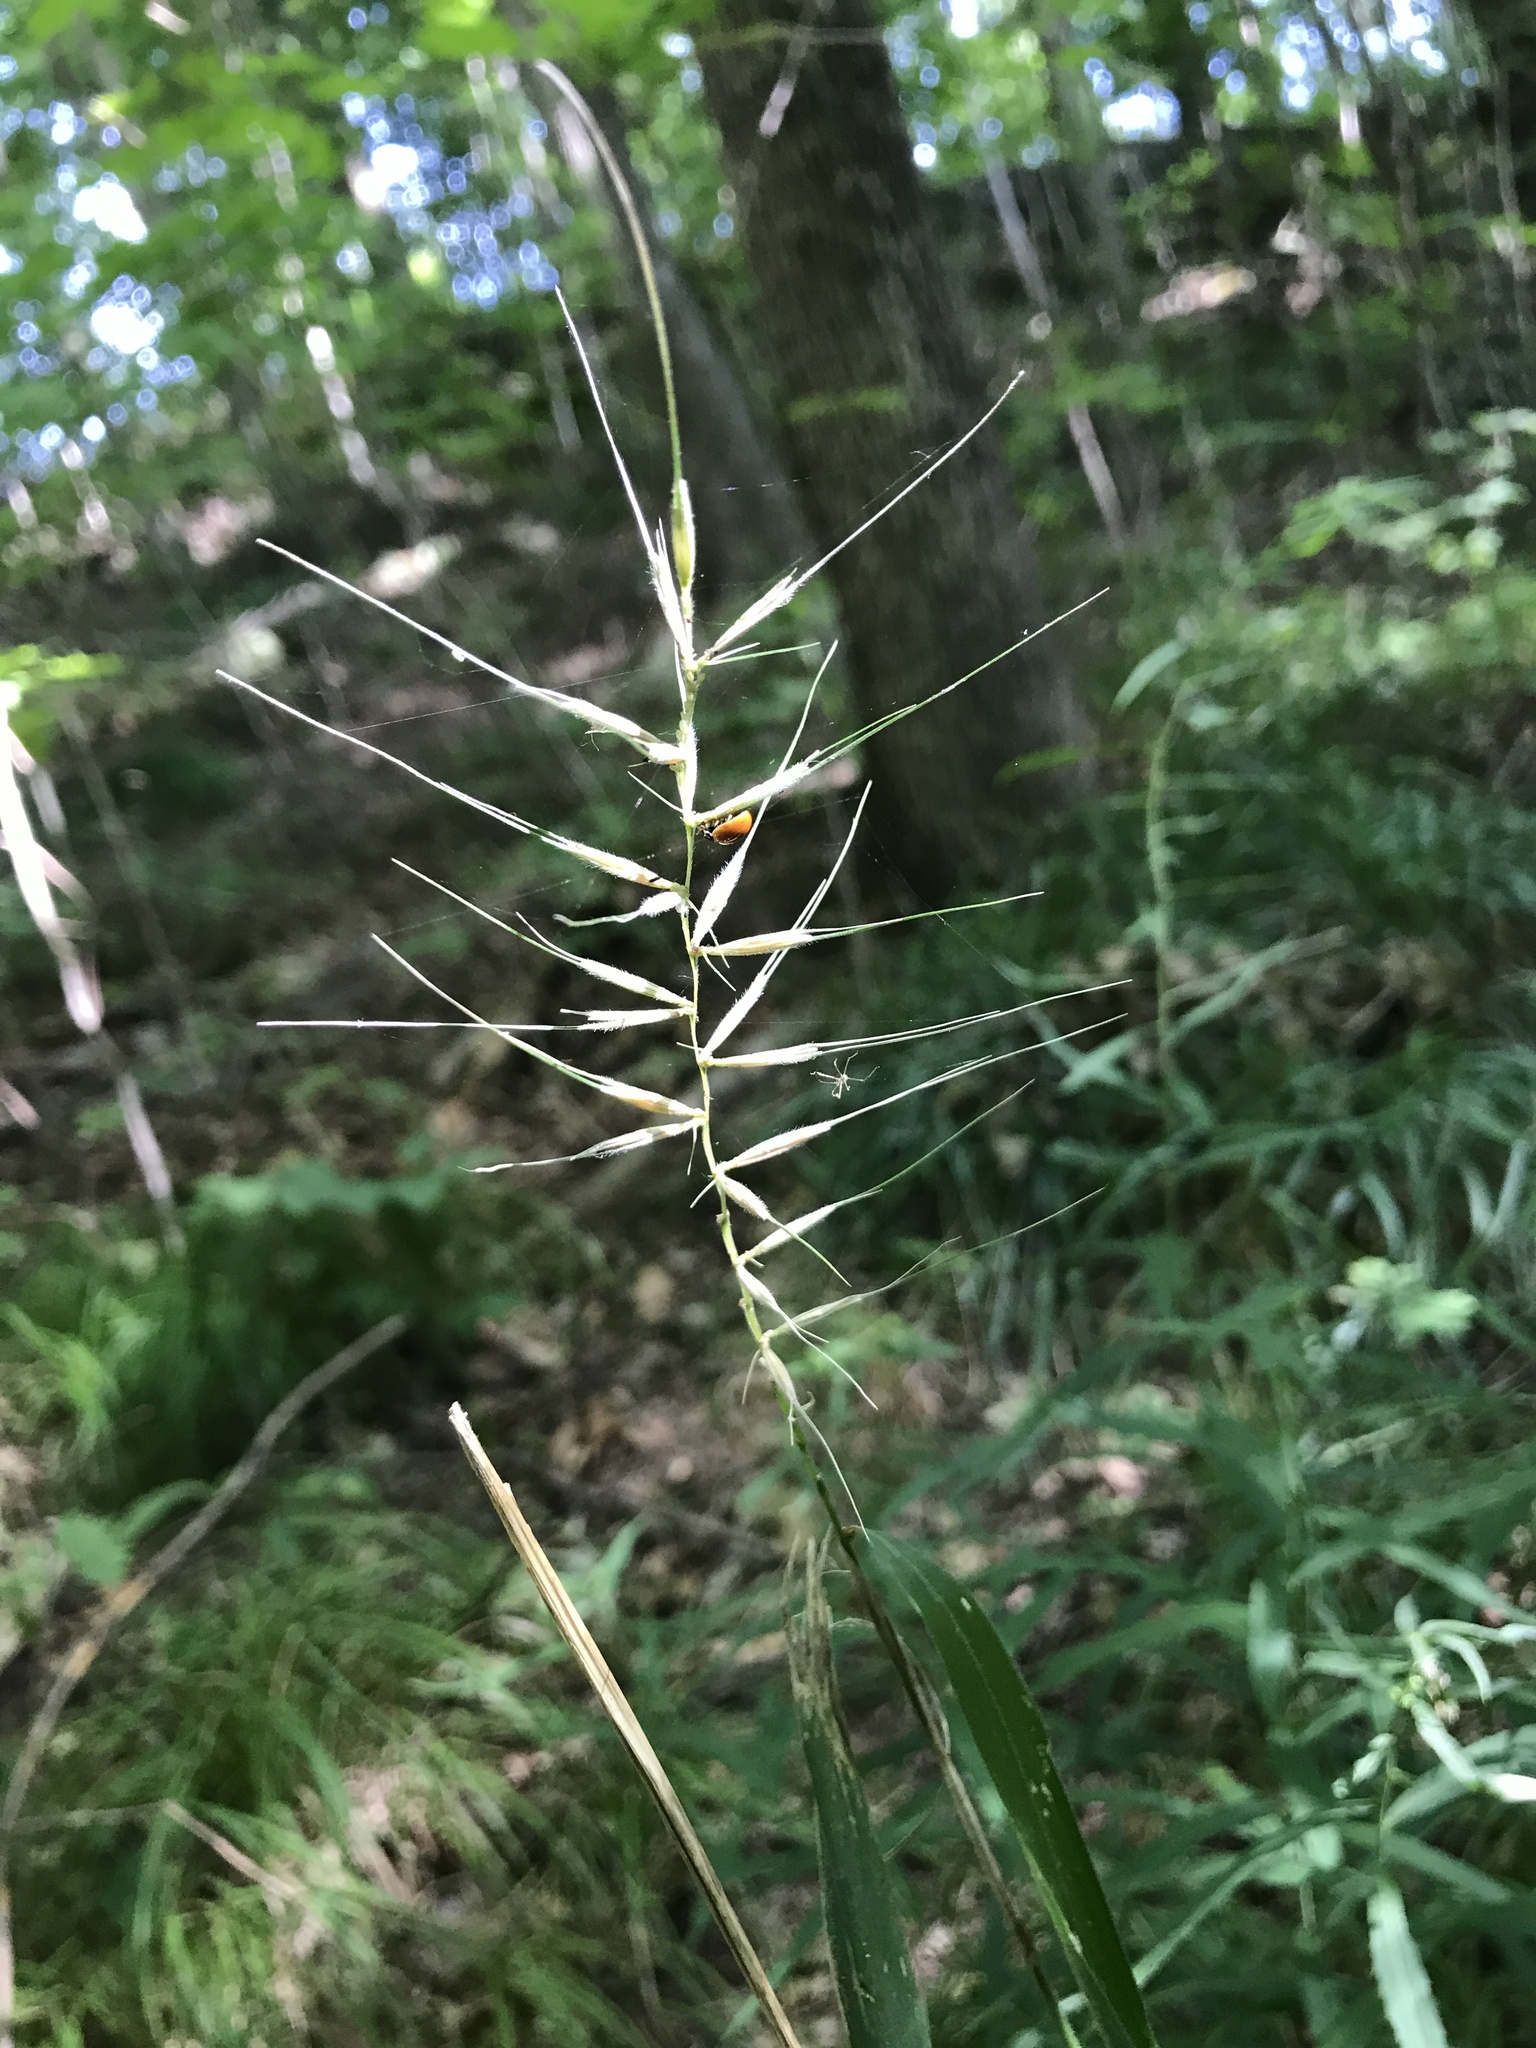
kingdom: Plantae
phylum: Tracheophyta
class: Liliopsida
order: Poales
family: Poaceae
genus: Elymus
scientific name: Elymus hystrix
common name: Bottlebrush grass
